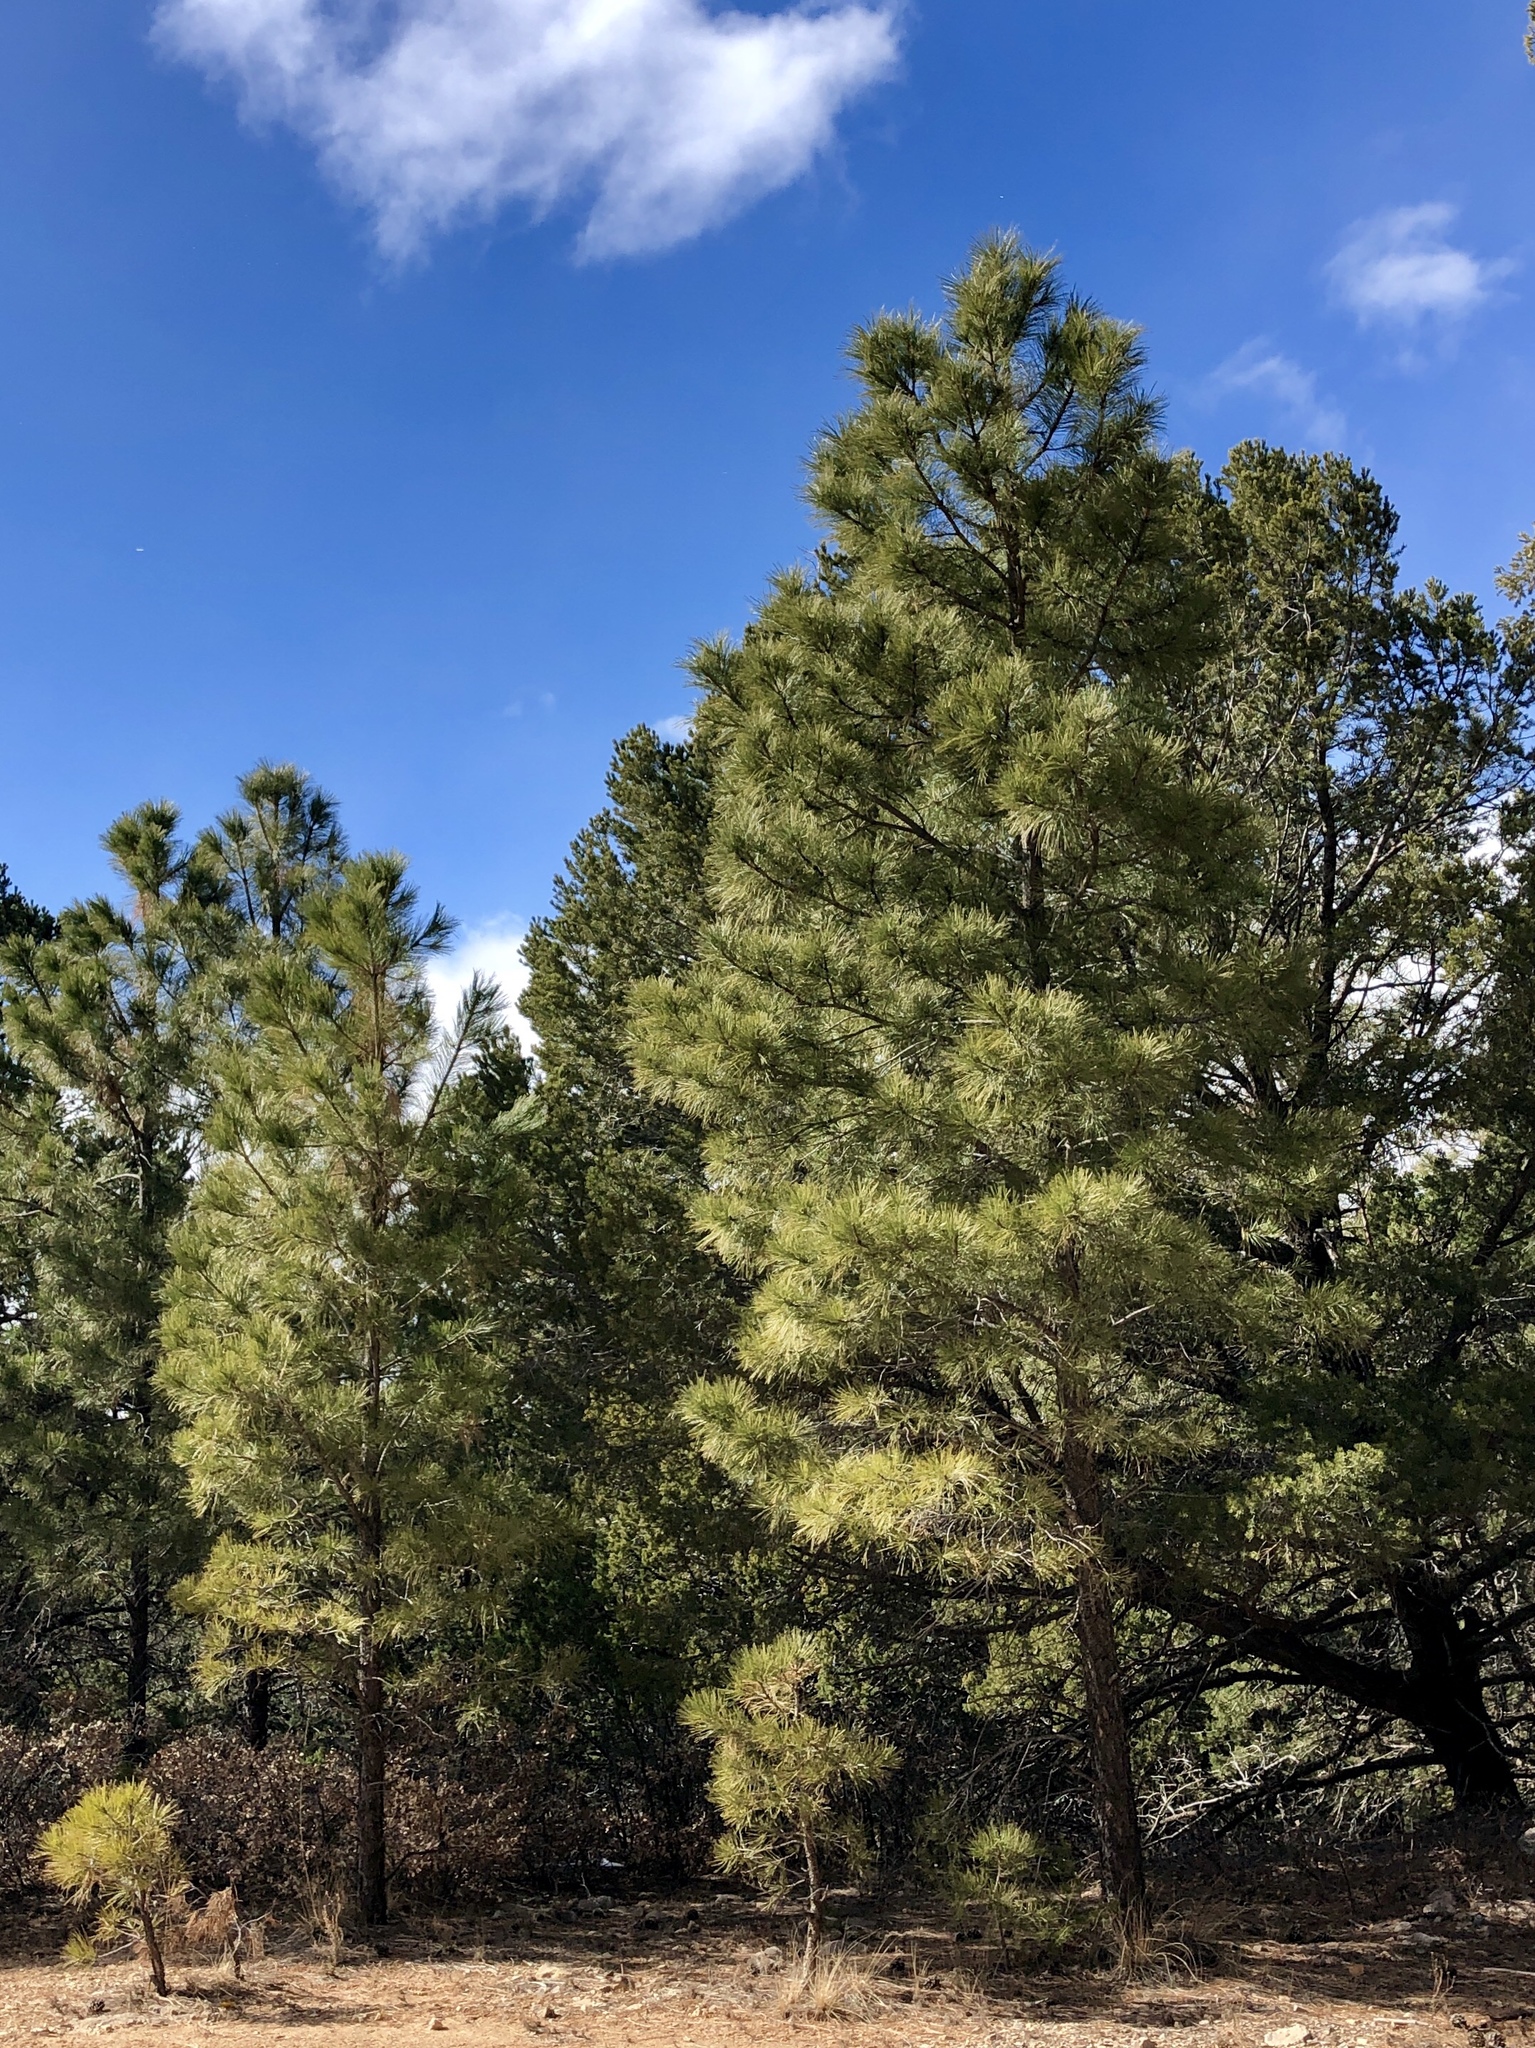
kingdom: Plantae
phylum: Tracheophyta
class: Pinopsida
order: Pinales
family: Pinaceae
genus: Pinus
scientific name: Pinus ponderosa
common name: Western yellow-pine
